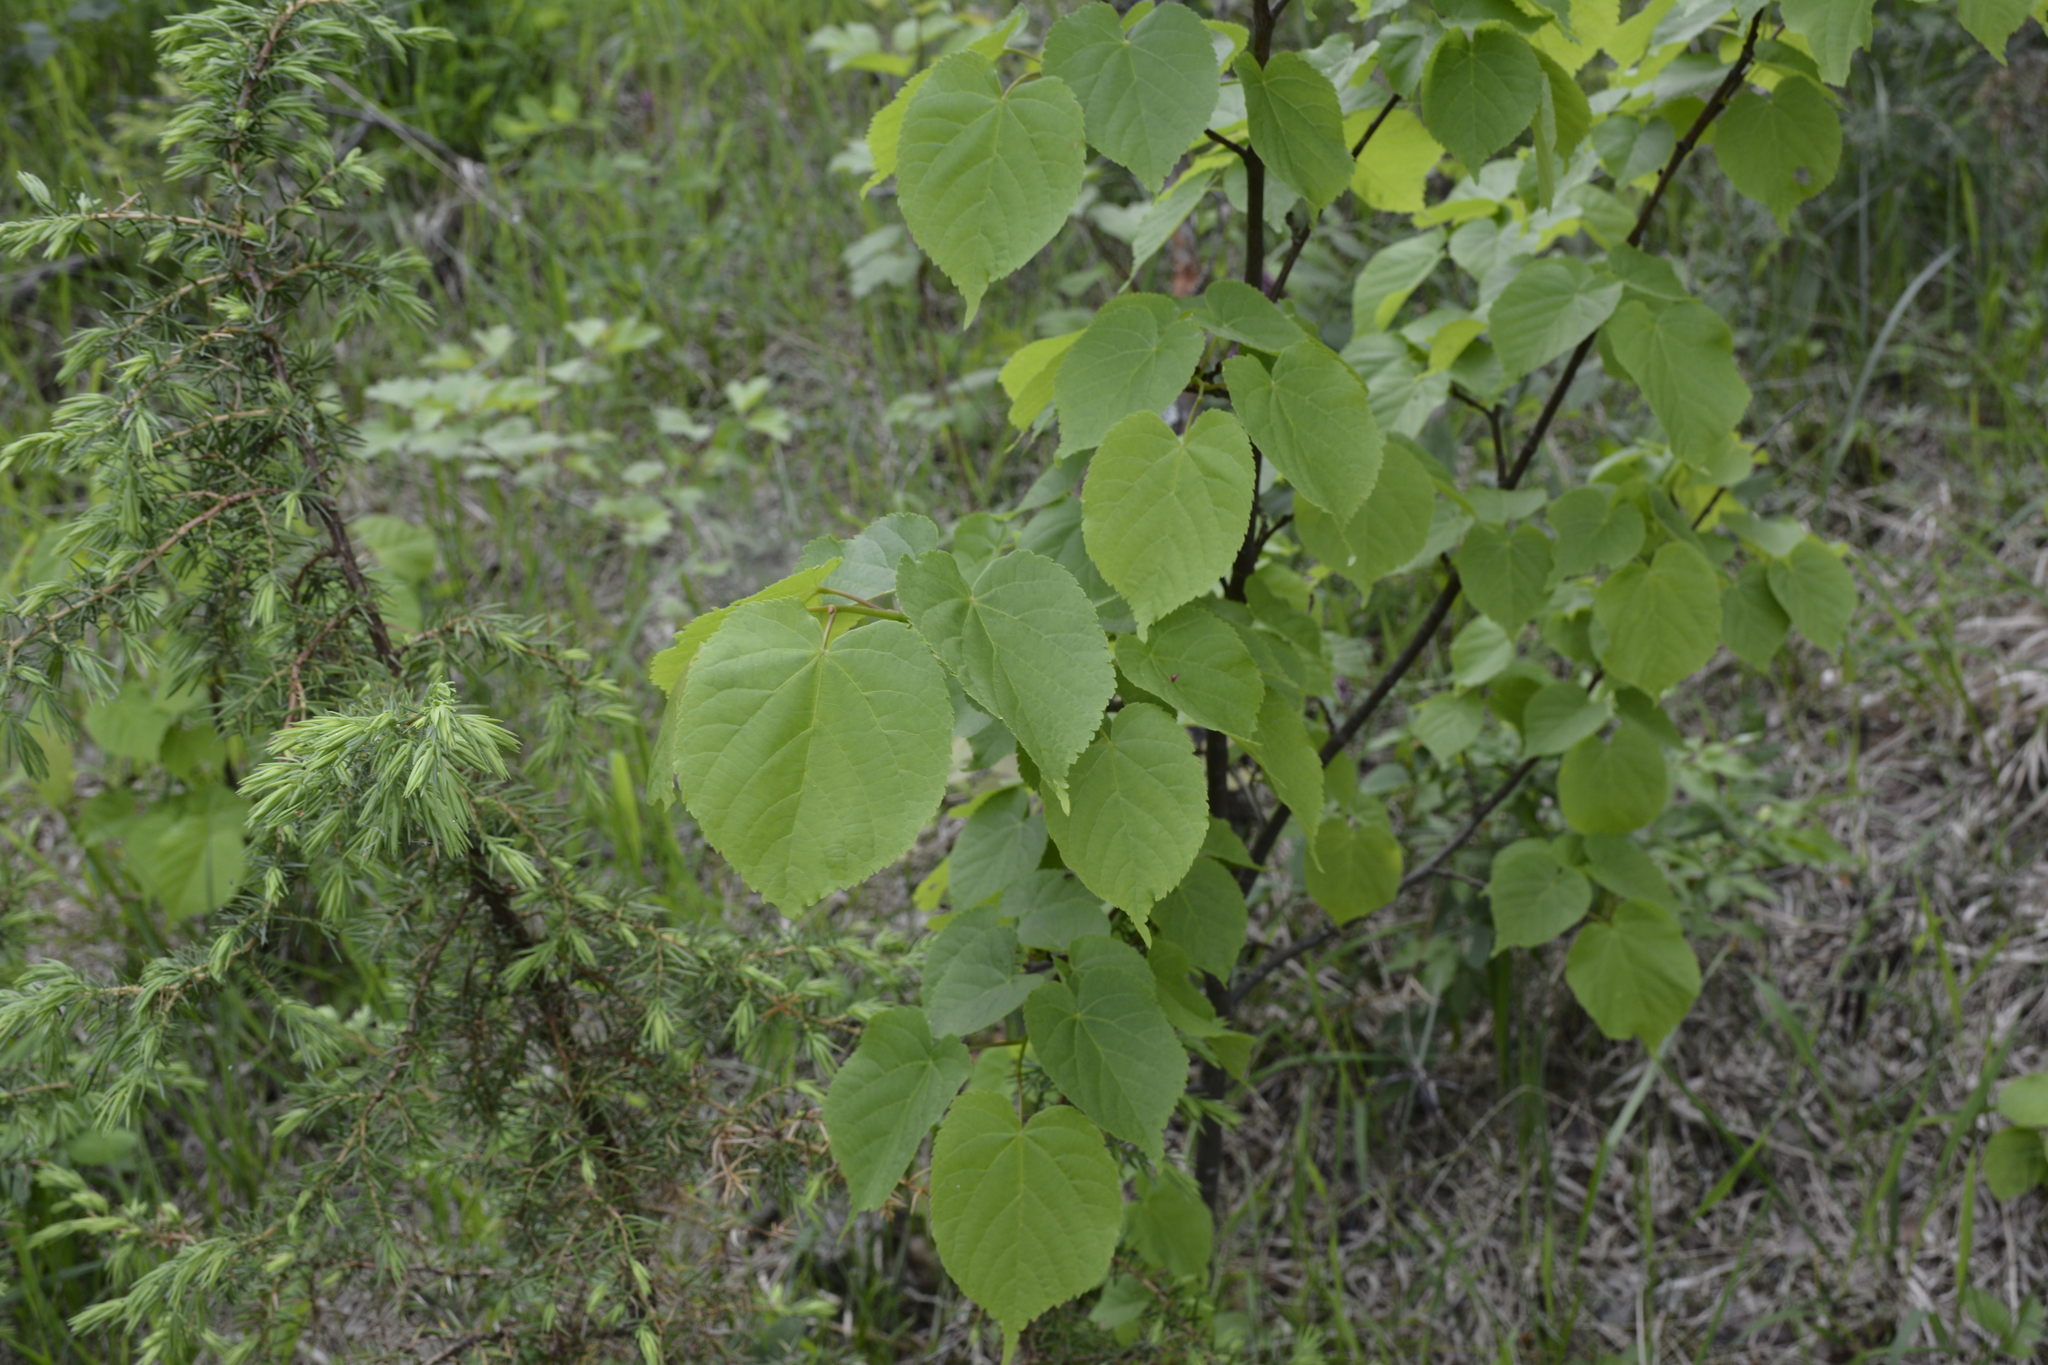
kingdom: Plantae
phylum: Tracheophyta
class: Magnoliopsida
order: Malvales
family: Malvaceae
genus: Tilia
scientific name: Tilia cordata
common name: Small-leaved lime
